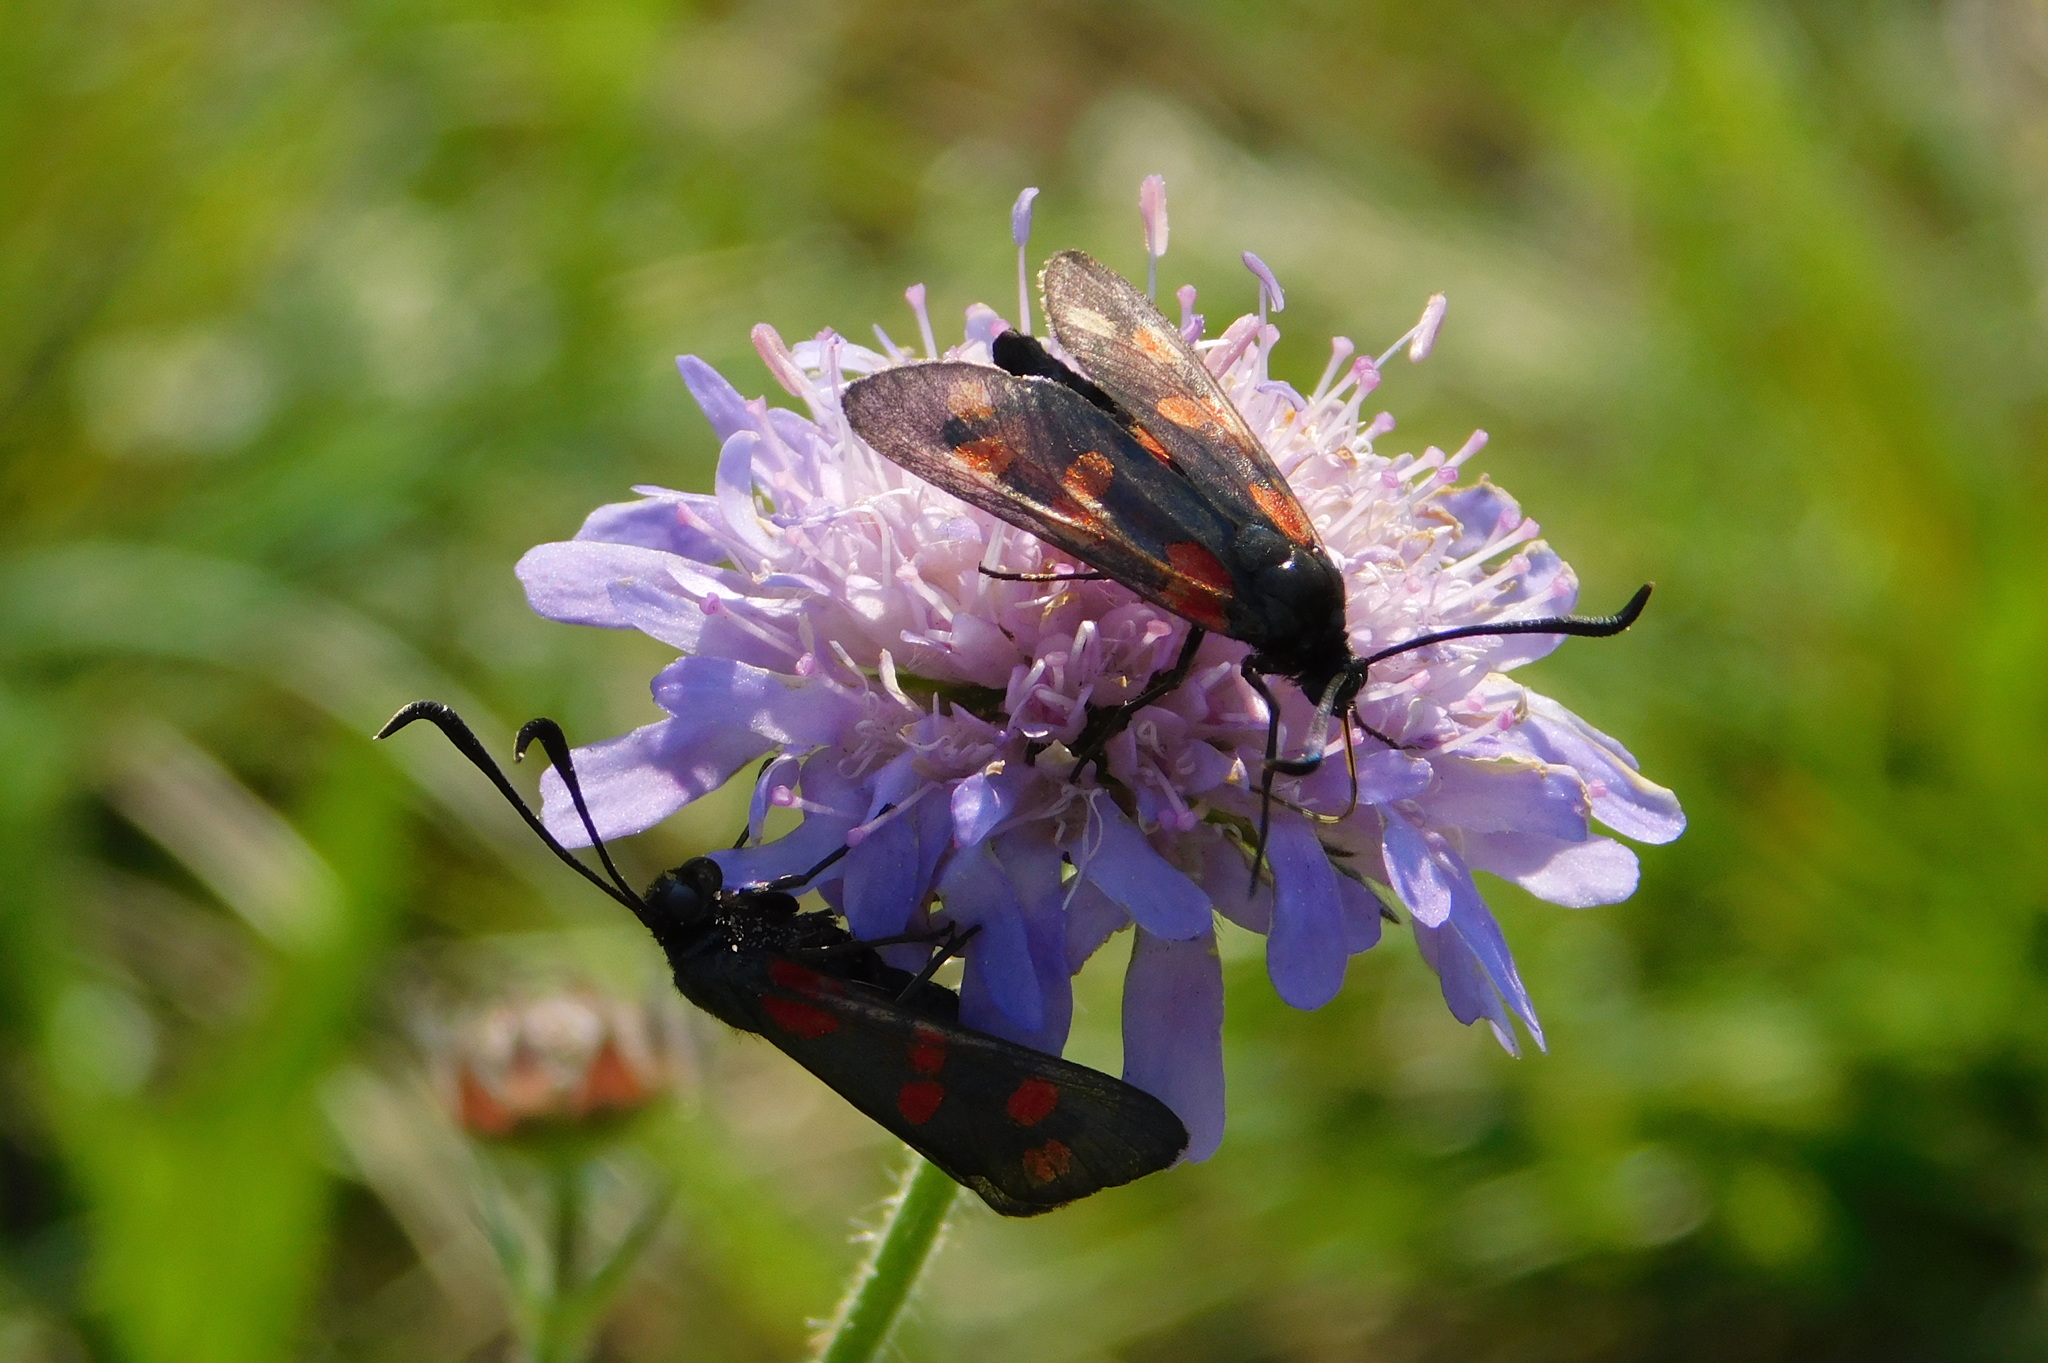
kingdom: Animalia
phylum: Arthropoda
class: Insecta
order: Lepidoptera
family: Zygaenidae
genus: Zygaena
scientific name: Zygaena filipendulae
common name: Six-spot burnet
